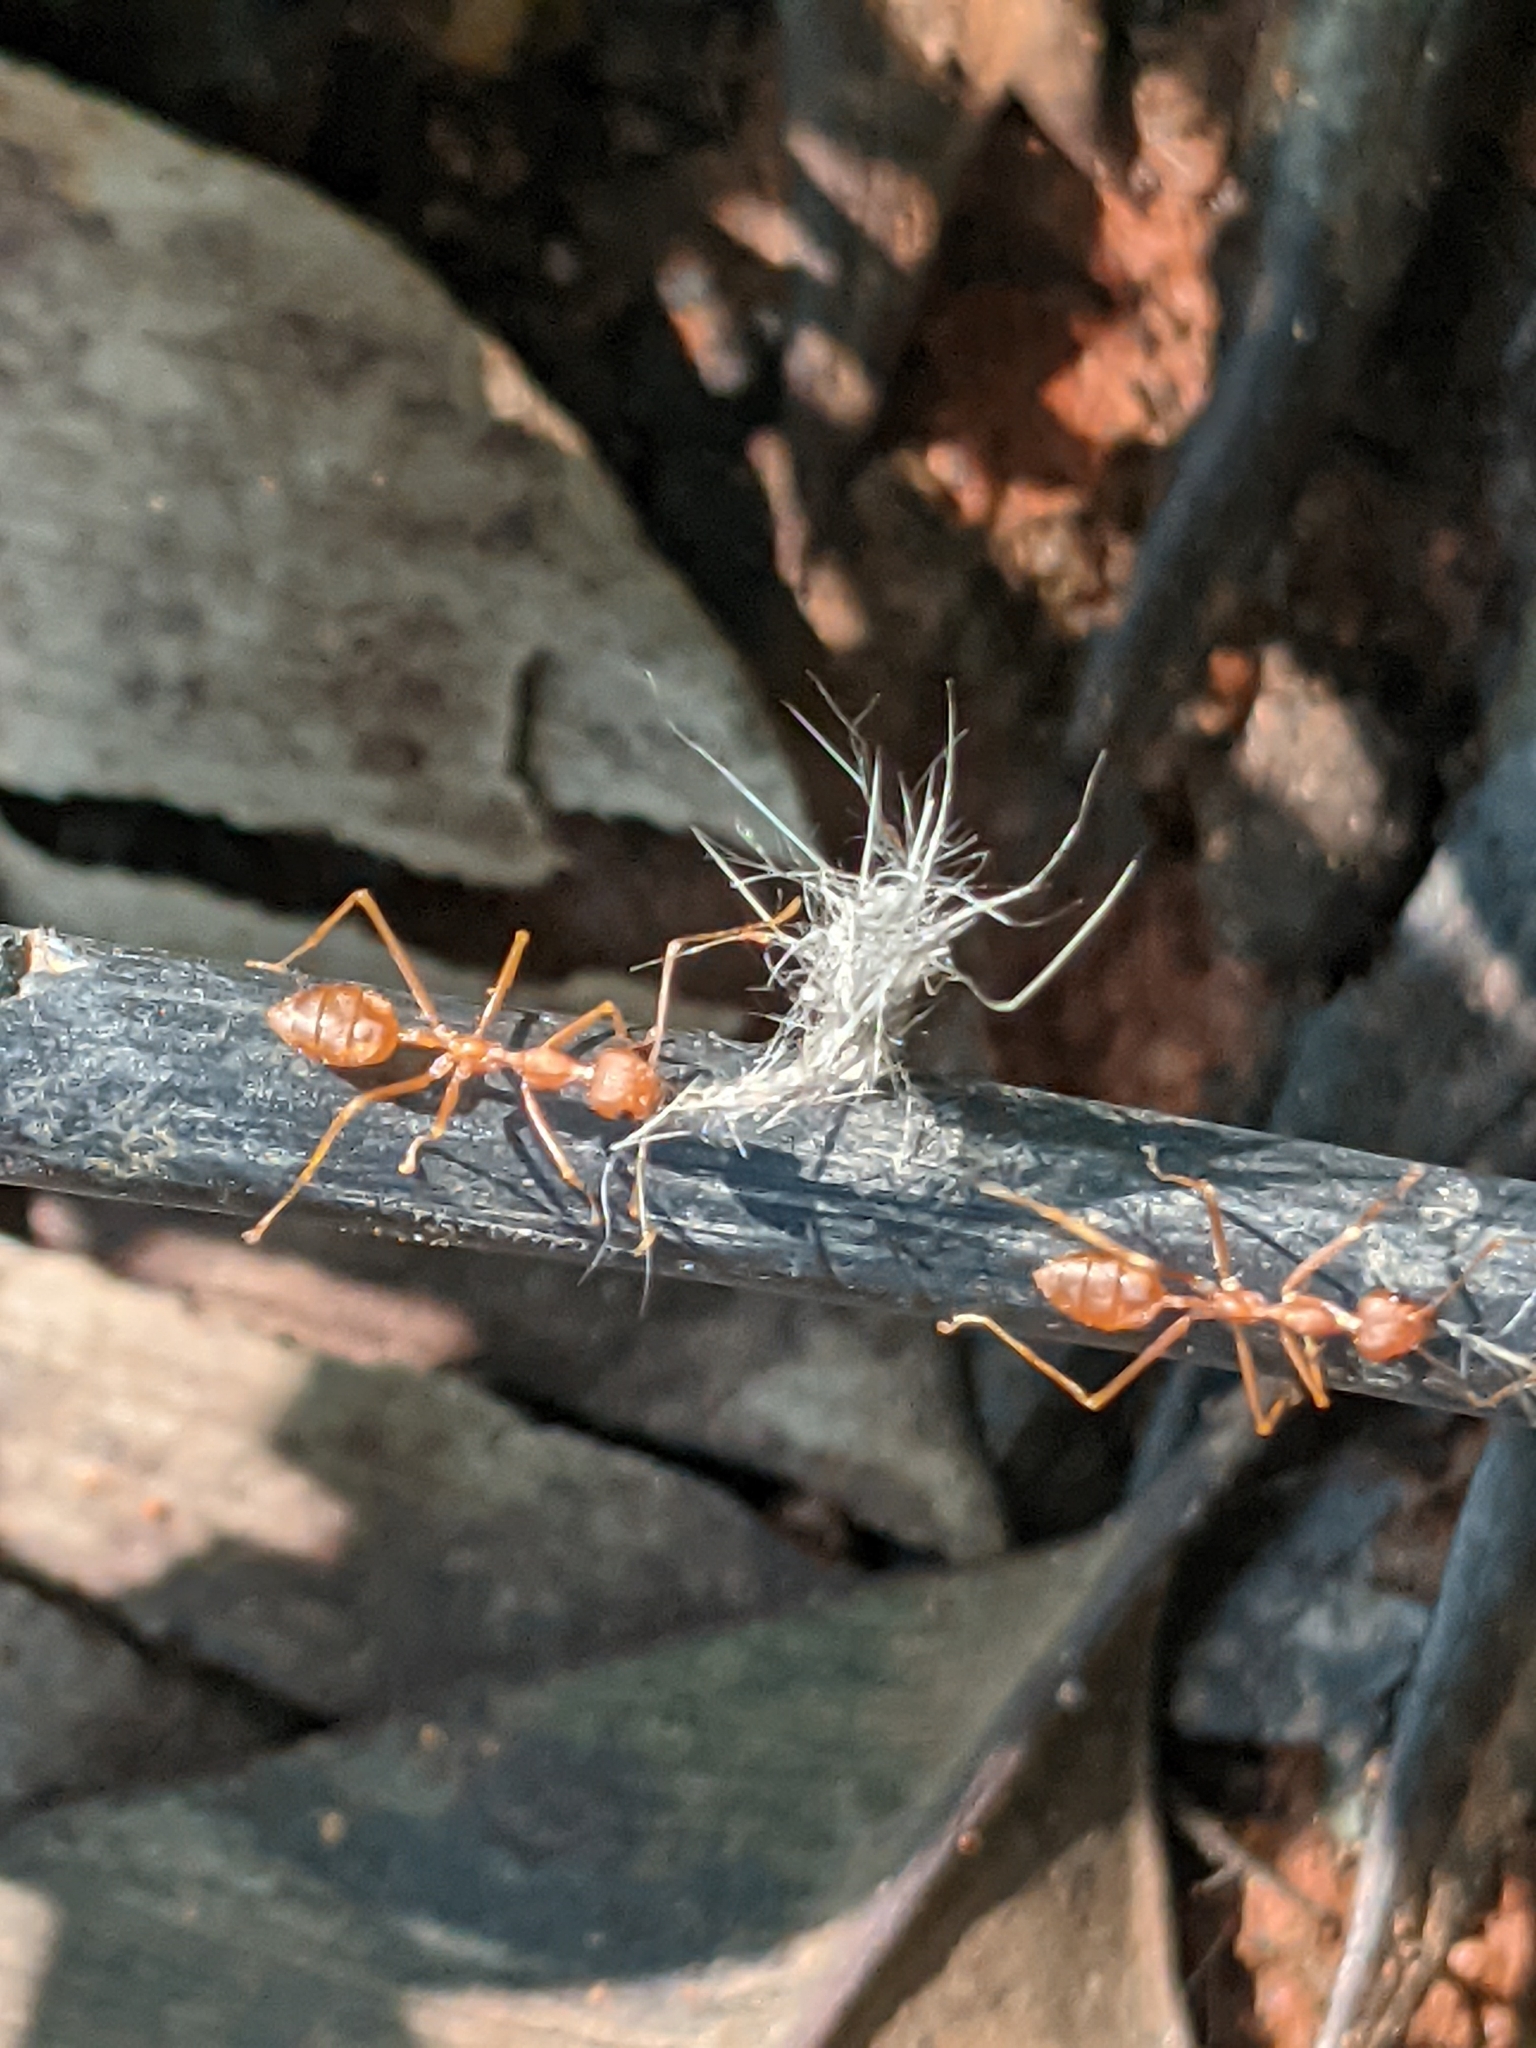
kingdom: Animalia
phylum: Arthropoda
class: Insecta
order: Hymenoptera
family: Formicidae
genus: Oecophylla
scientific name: Oecophylla smaragdina
